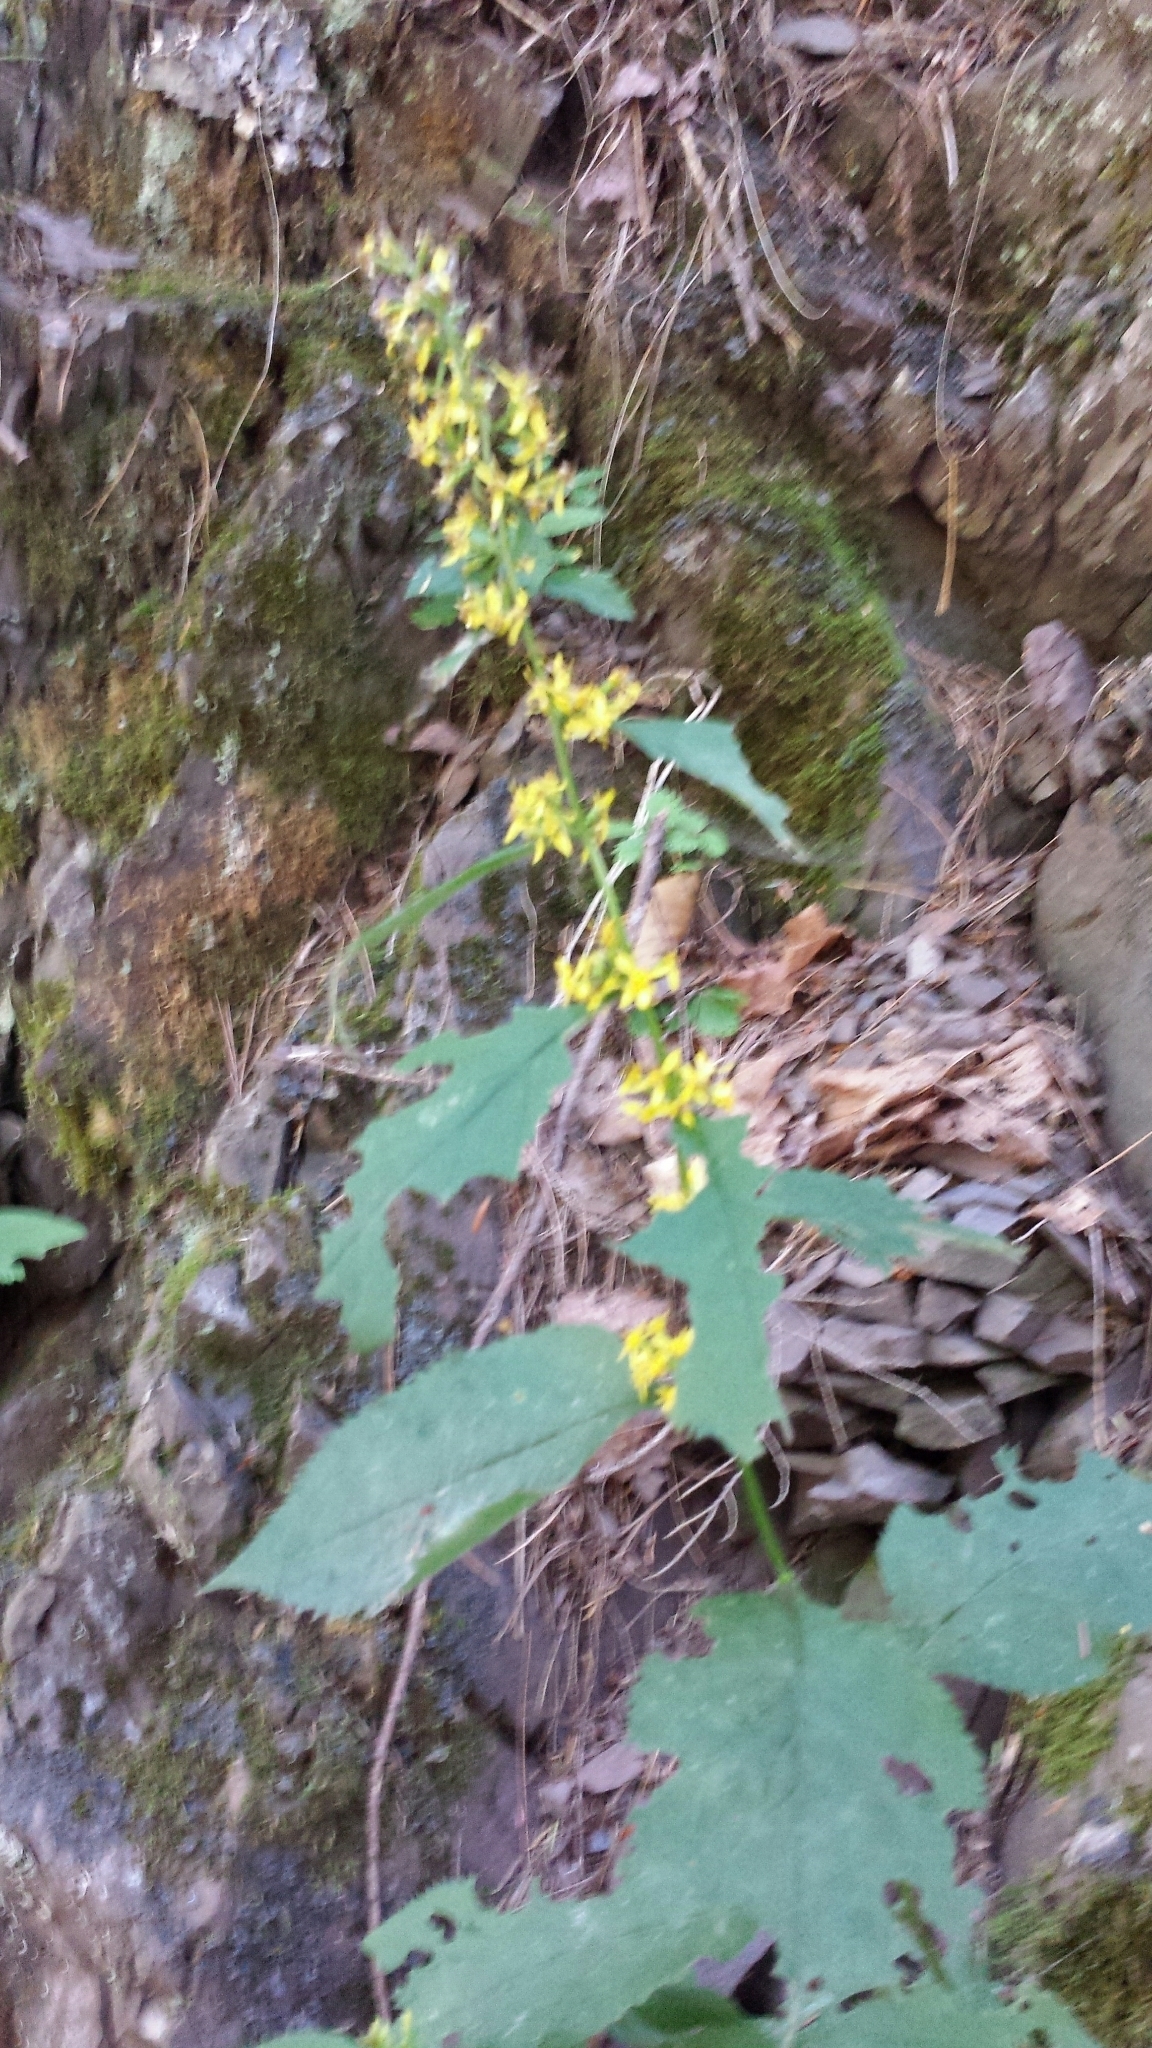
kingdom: Plantae
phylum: Tracheophyta
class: Magnoliopsida
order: Asterales
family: Asteraceae
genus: Solidago
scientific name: Solidago flexicaulis
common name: Zig-zag goldenrod
